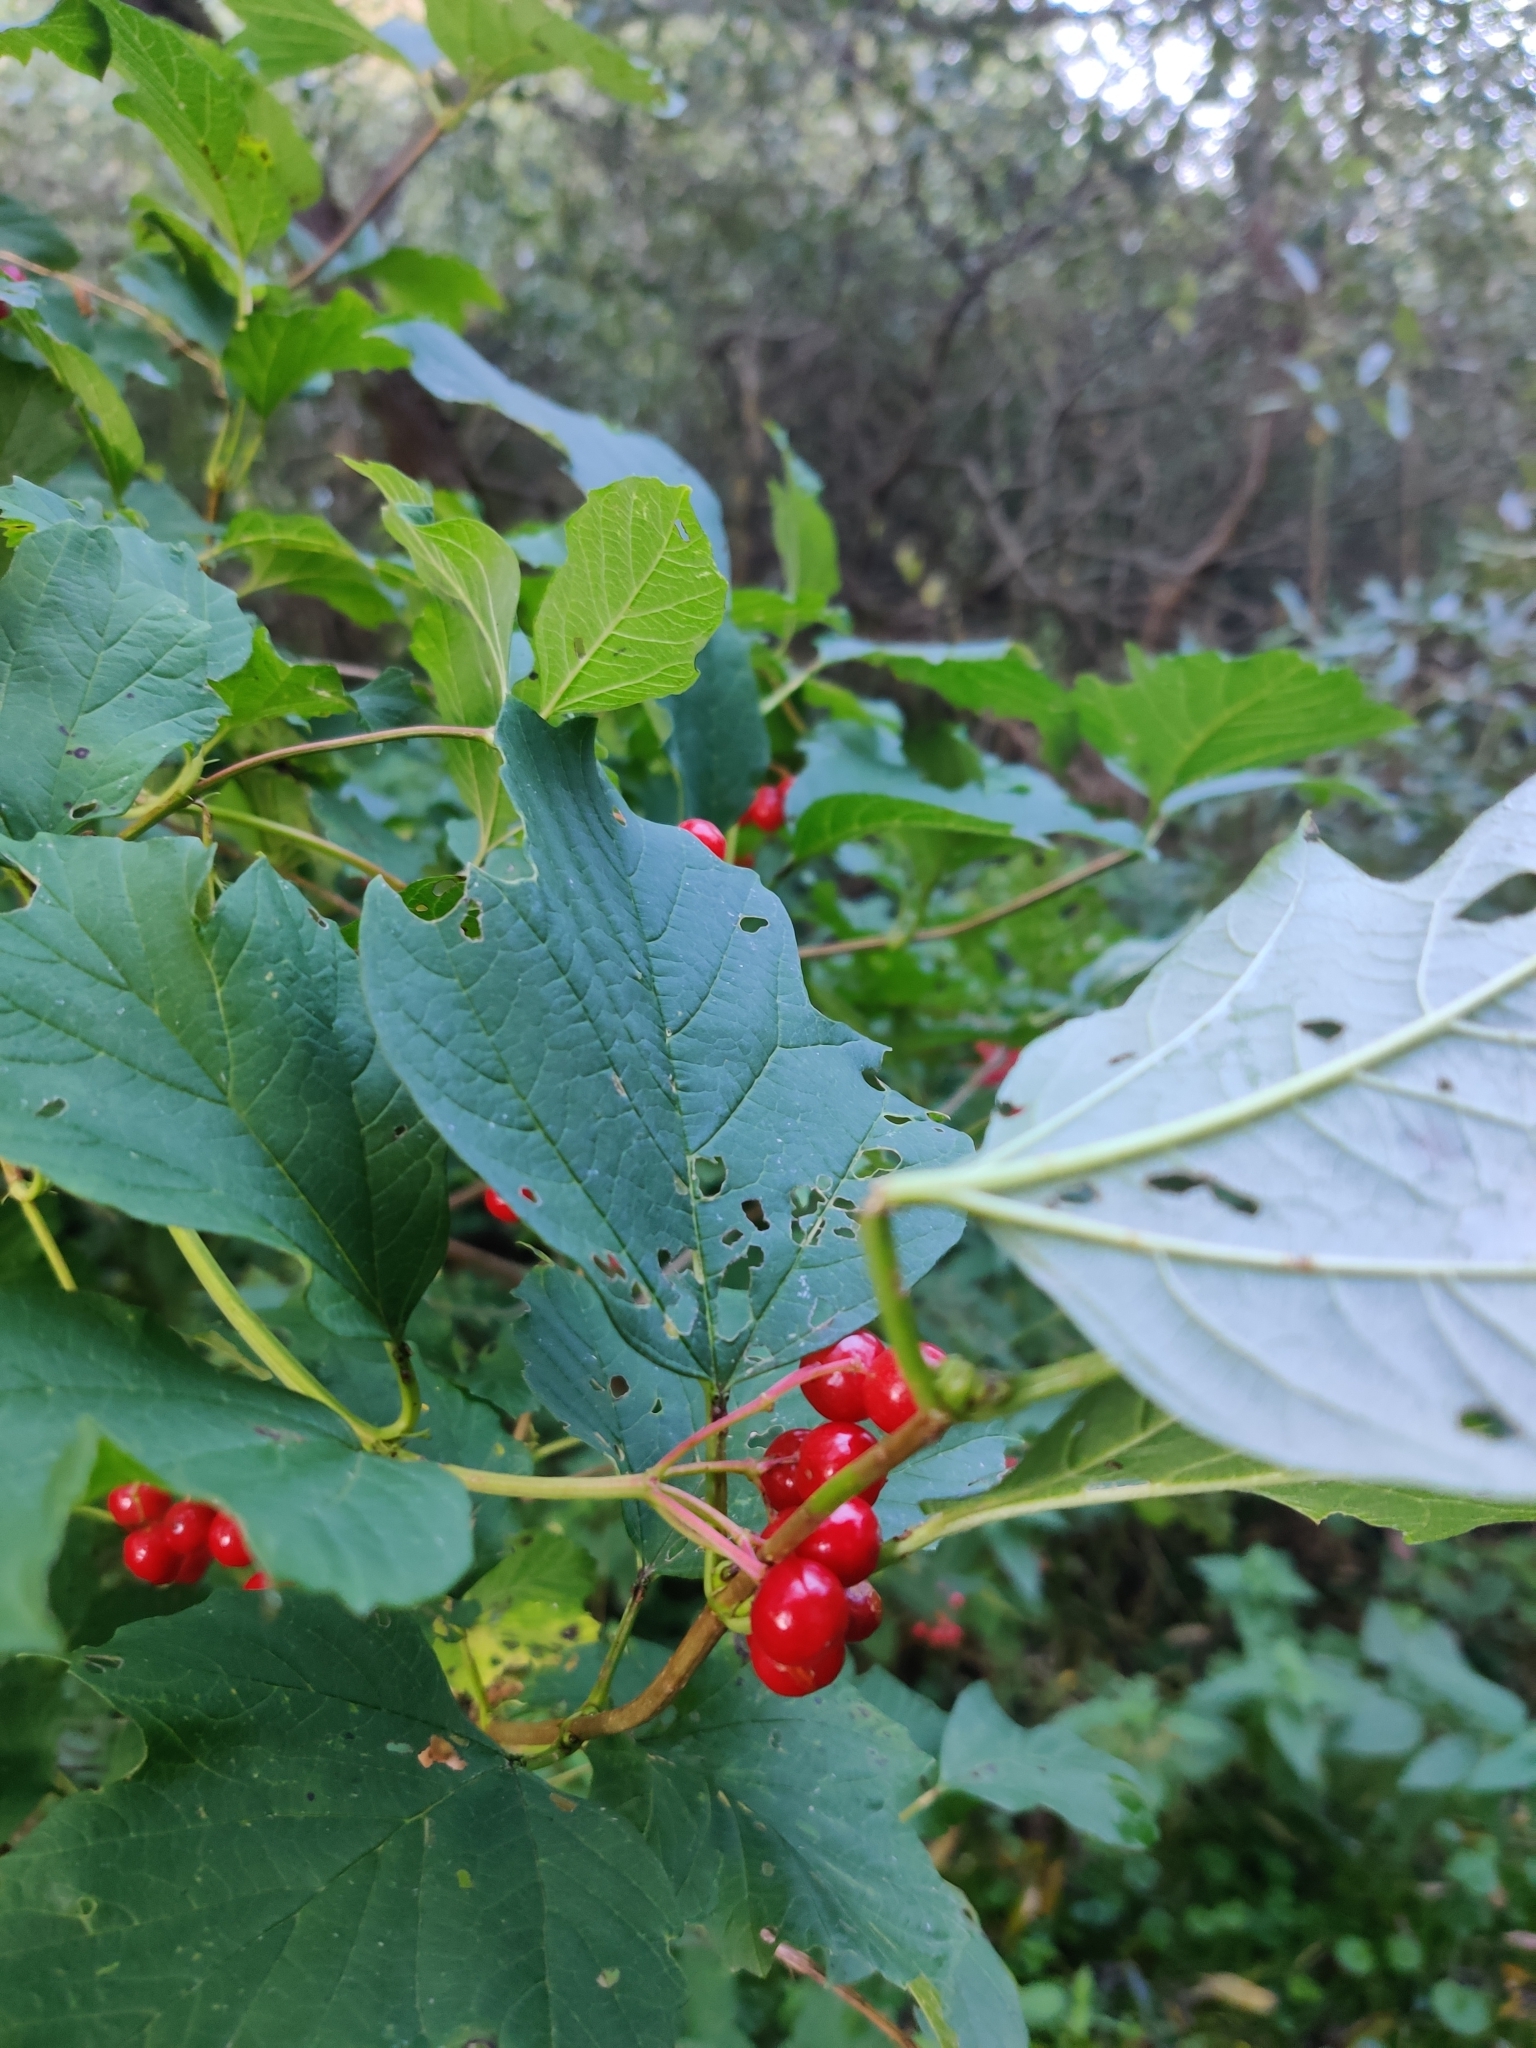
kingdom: Plantae
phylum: Tracheophyta
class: Magnoliopsida
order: Dipsacales
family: Viburnaceae
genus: Viburnum
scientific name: Viburnum opulus
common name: Guelder-rose
